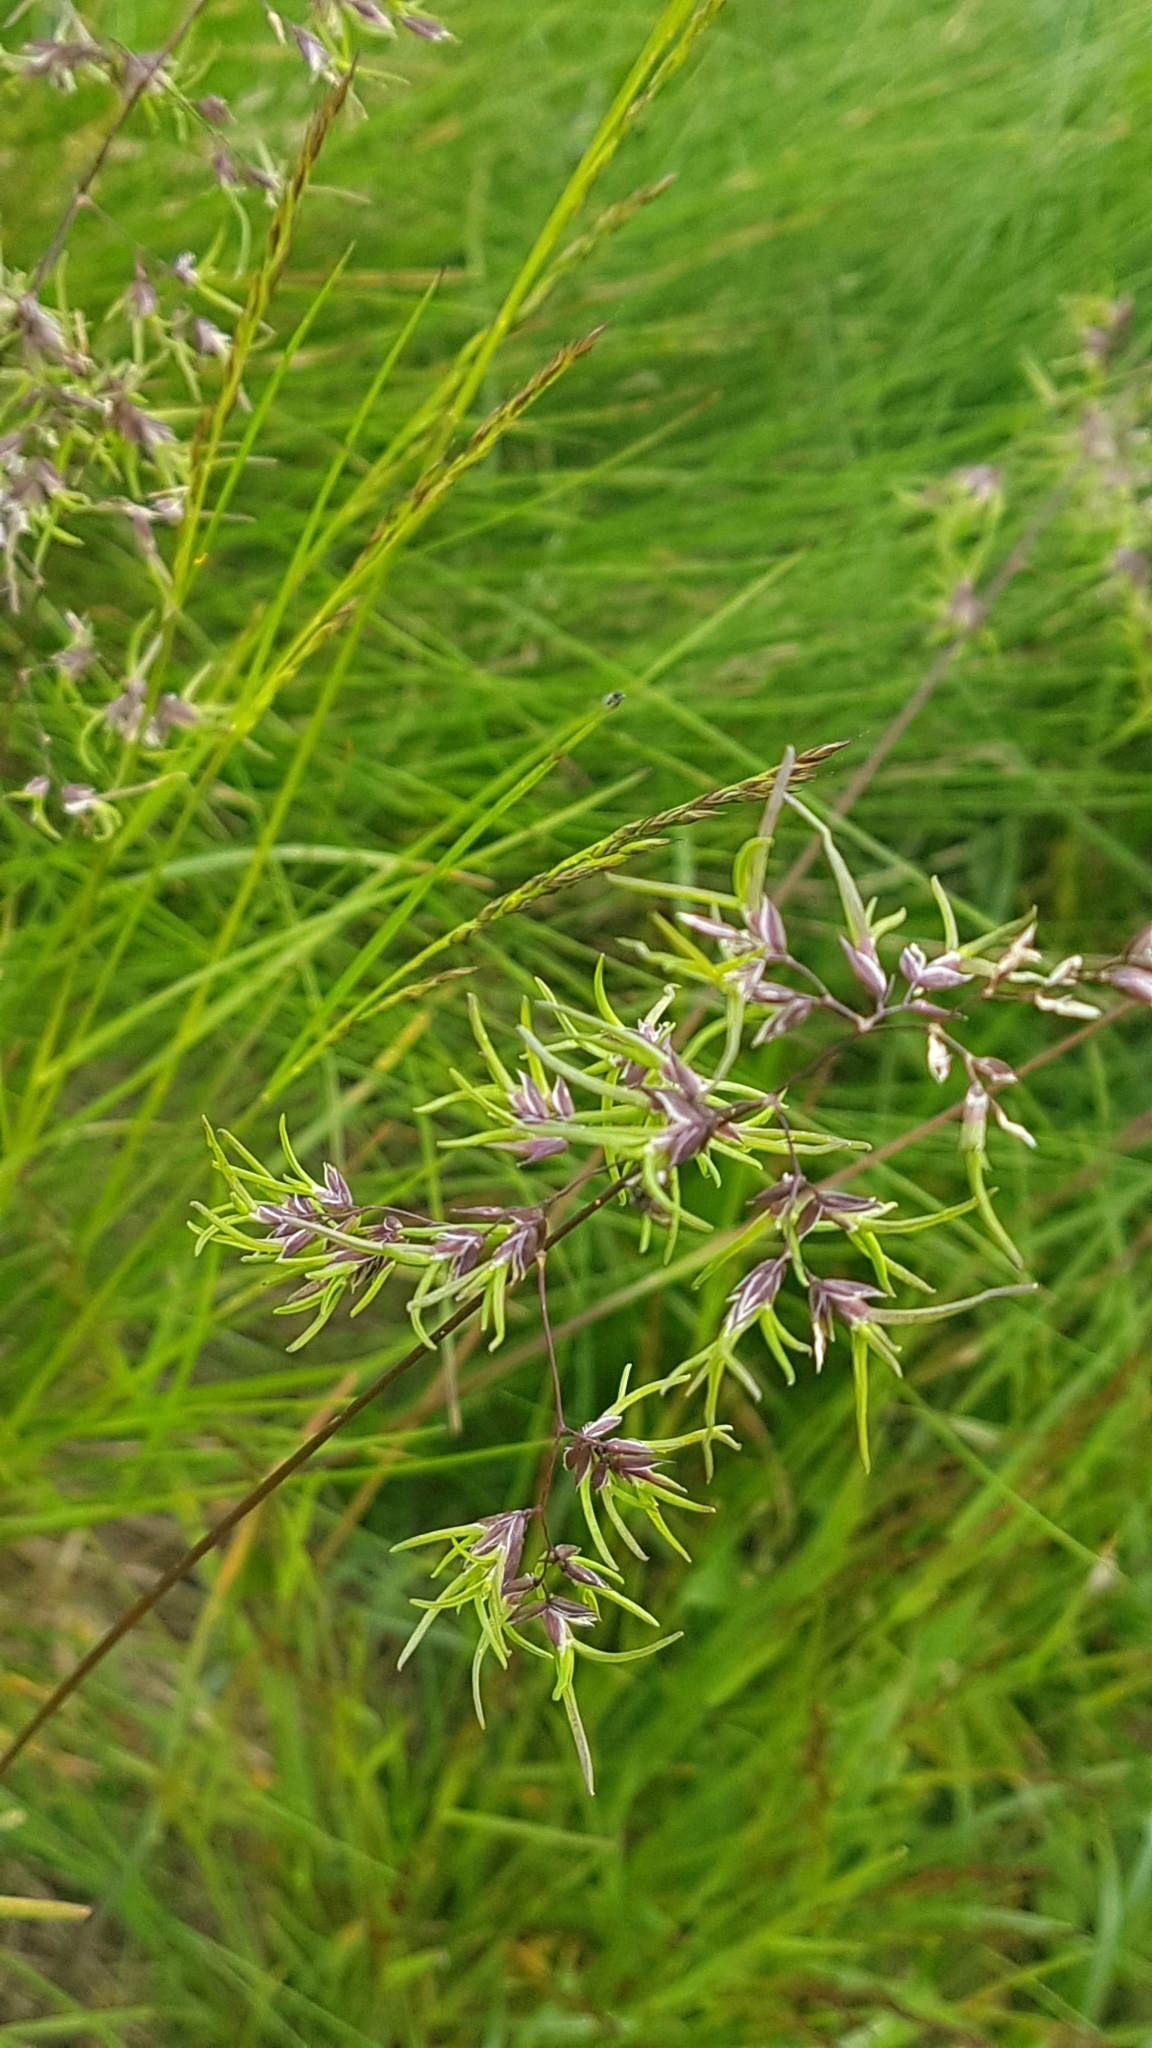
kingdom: Plantae
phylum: Tracheophyta
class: Liliopsida
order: Poales
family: Poaceae
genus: Poa
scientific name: Poa bulbosa
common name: Bulbous bluegrass
